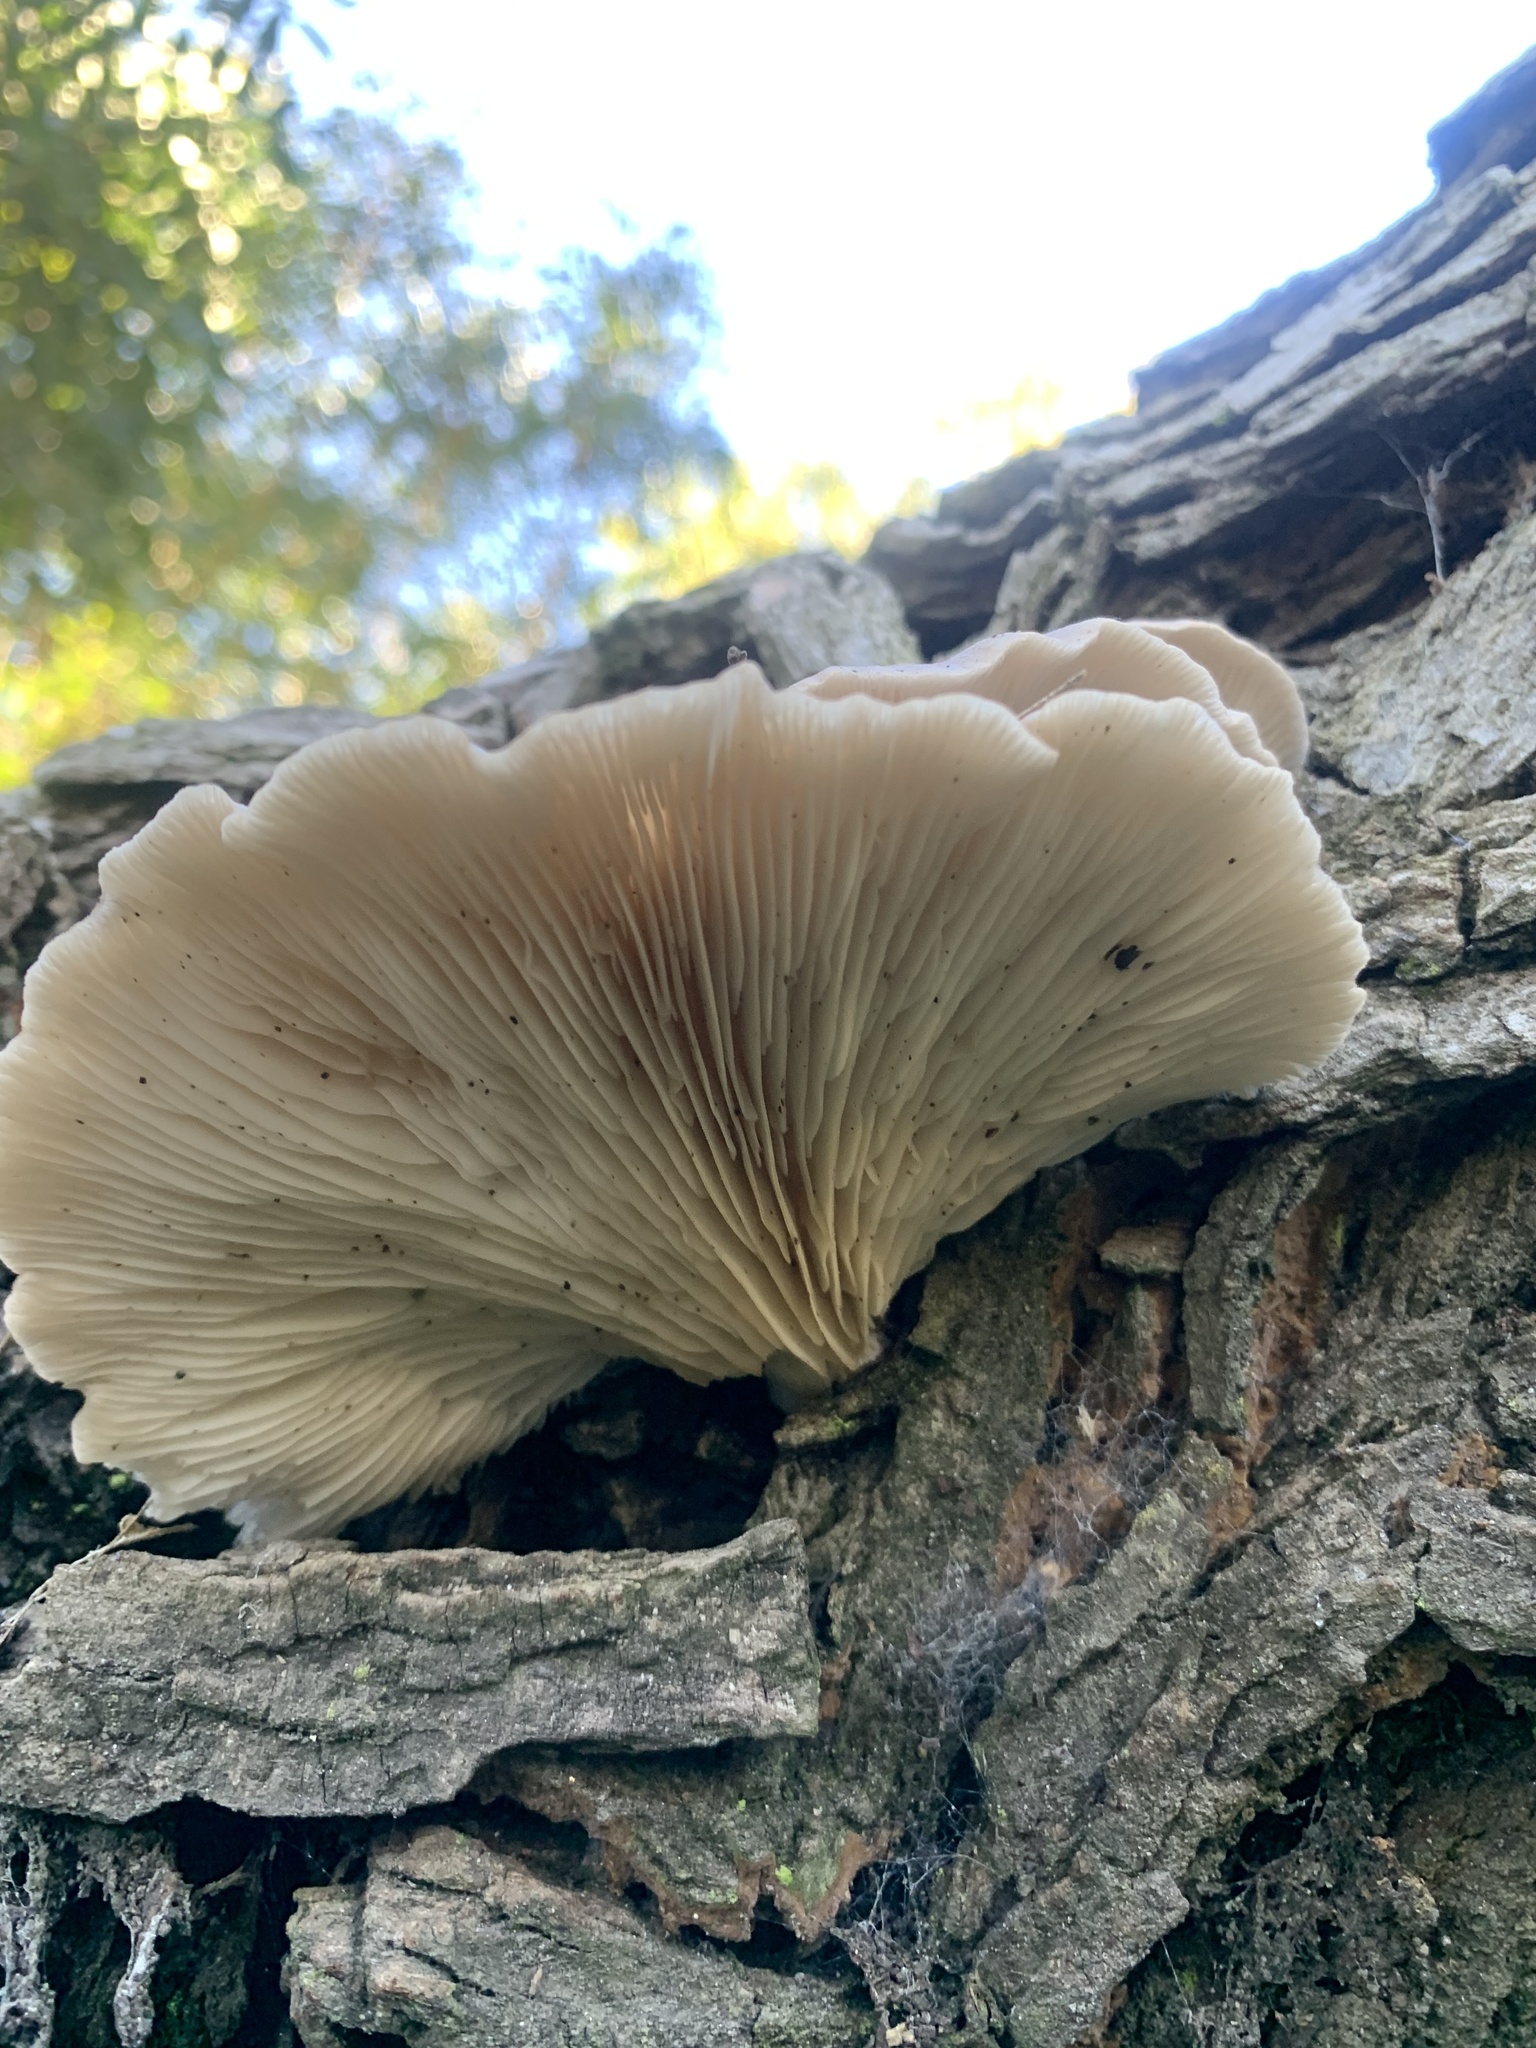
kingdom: Fungi
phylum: Basidiomycota
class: Agaricomycetes
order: Agaricales
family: Pleurotaceae
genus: Pleurotus
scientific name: Pleurotus ostreatus
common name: Oyster mushroom
